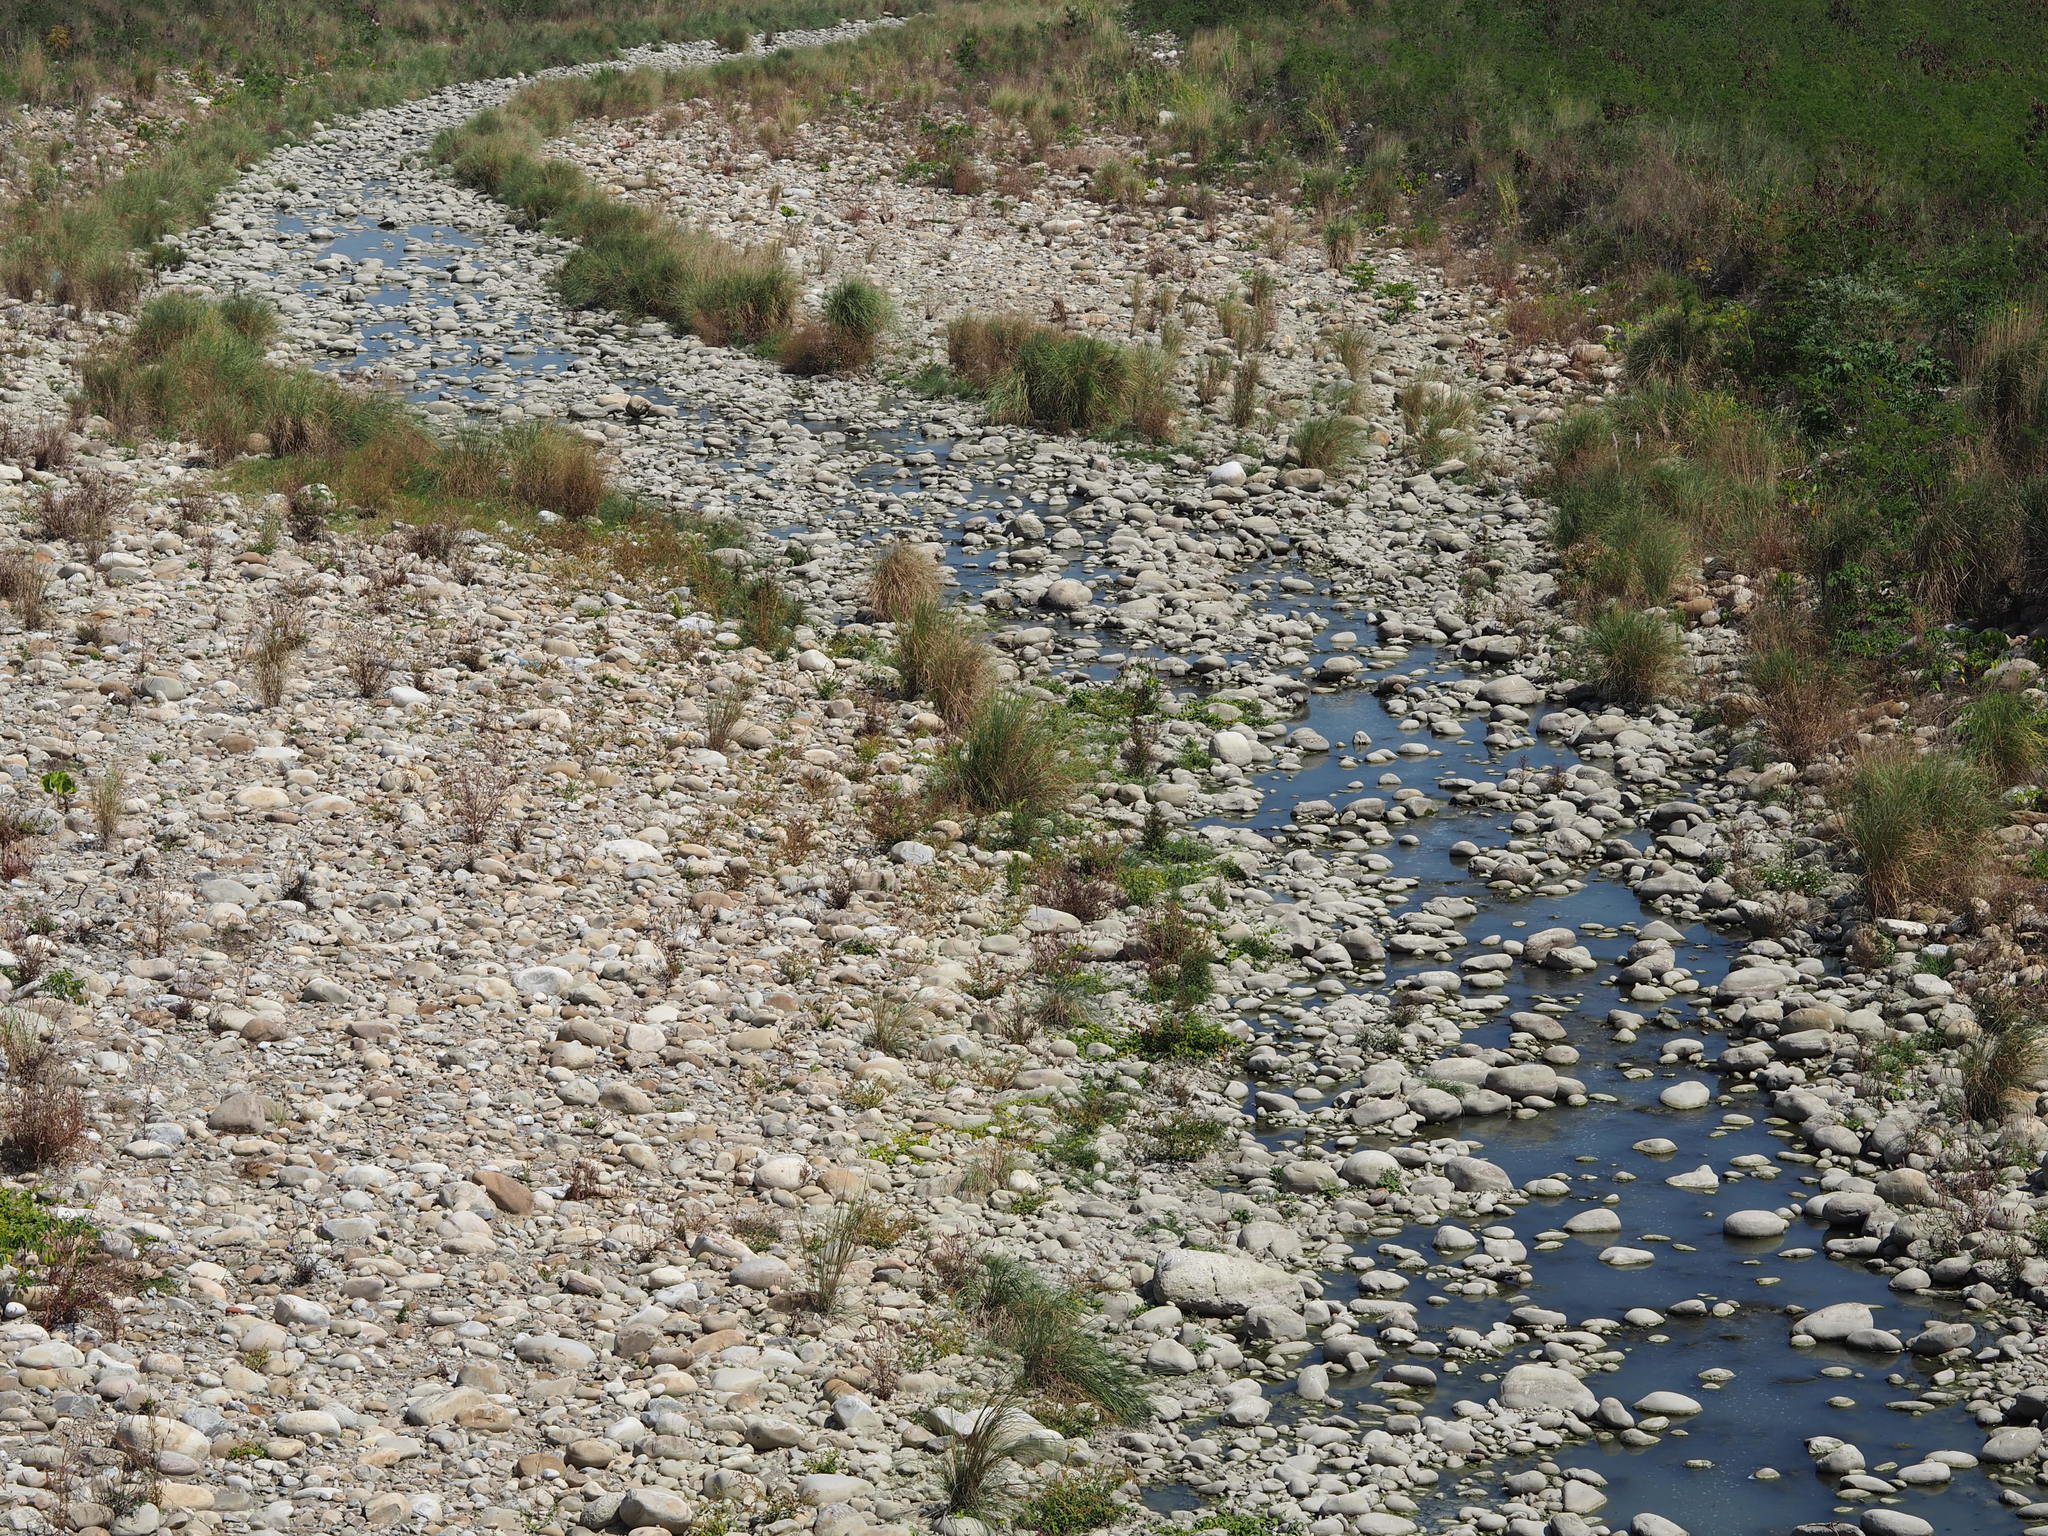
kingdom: Plantae
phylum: Tracheophyta
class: Liliopsida
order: Poales
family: Poaceae
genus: Saccharum
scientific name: Saccharum spontaneum
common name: Wild sugarcane
